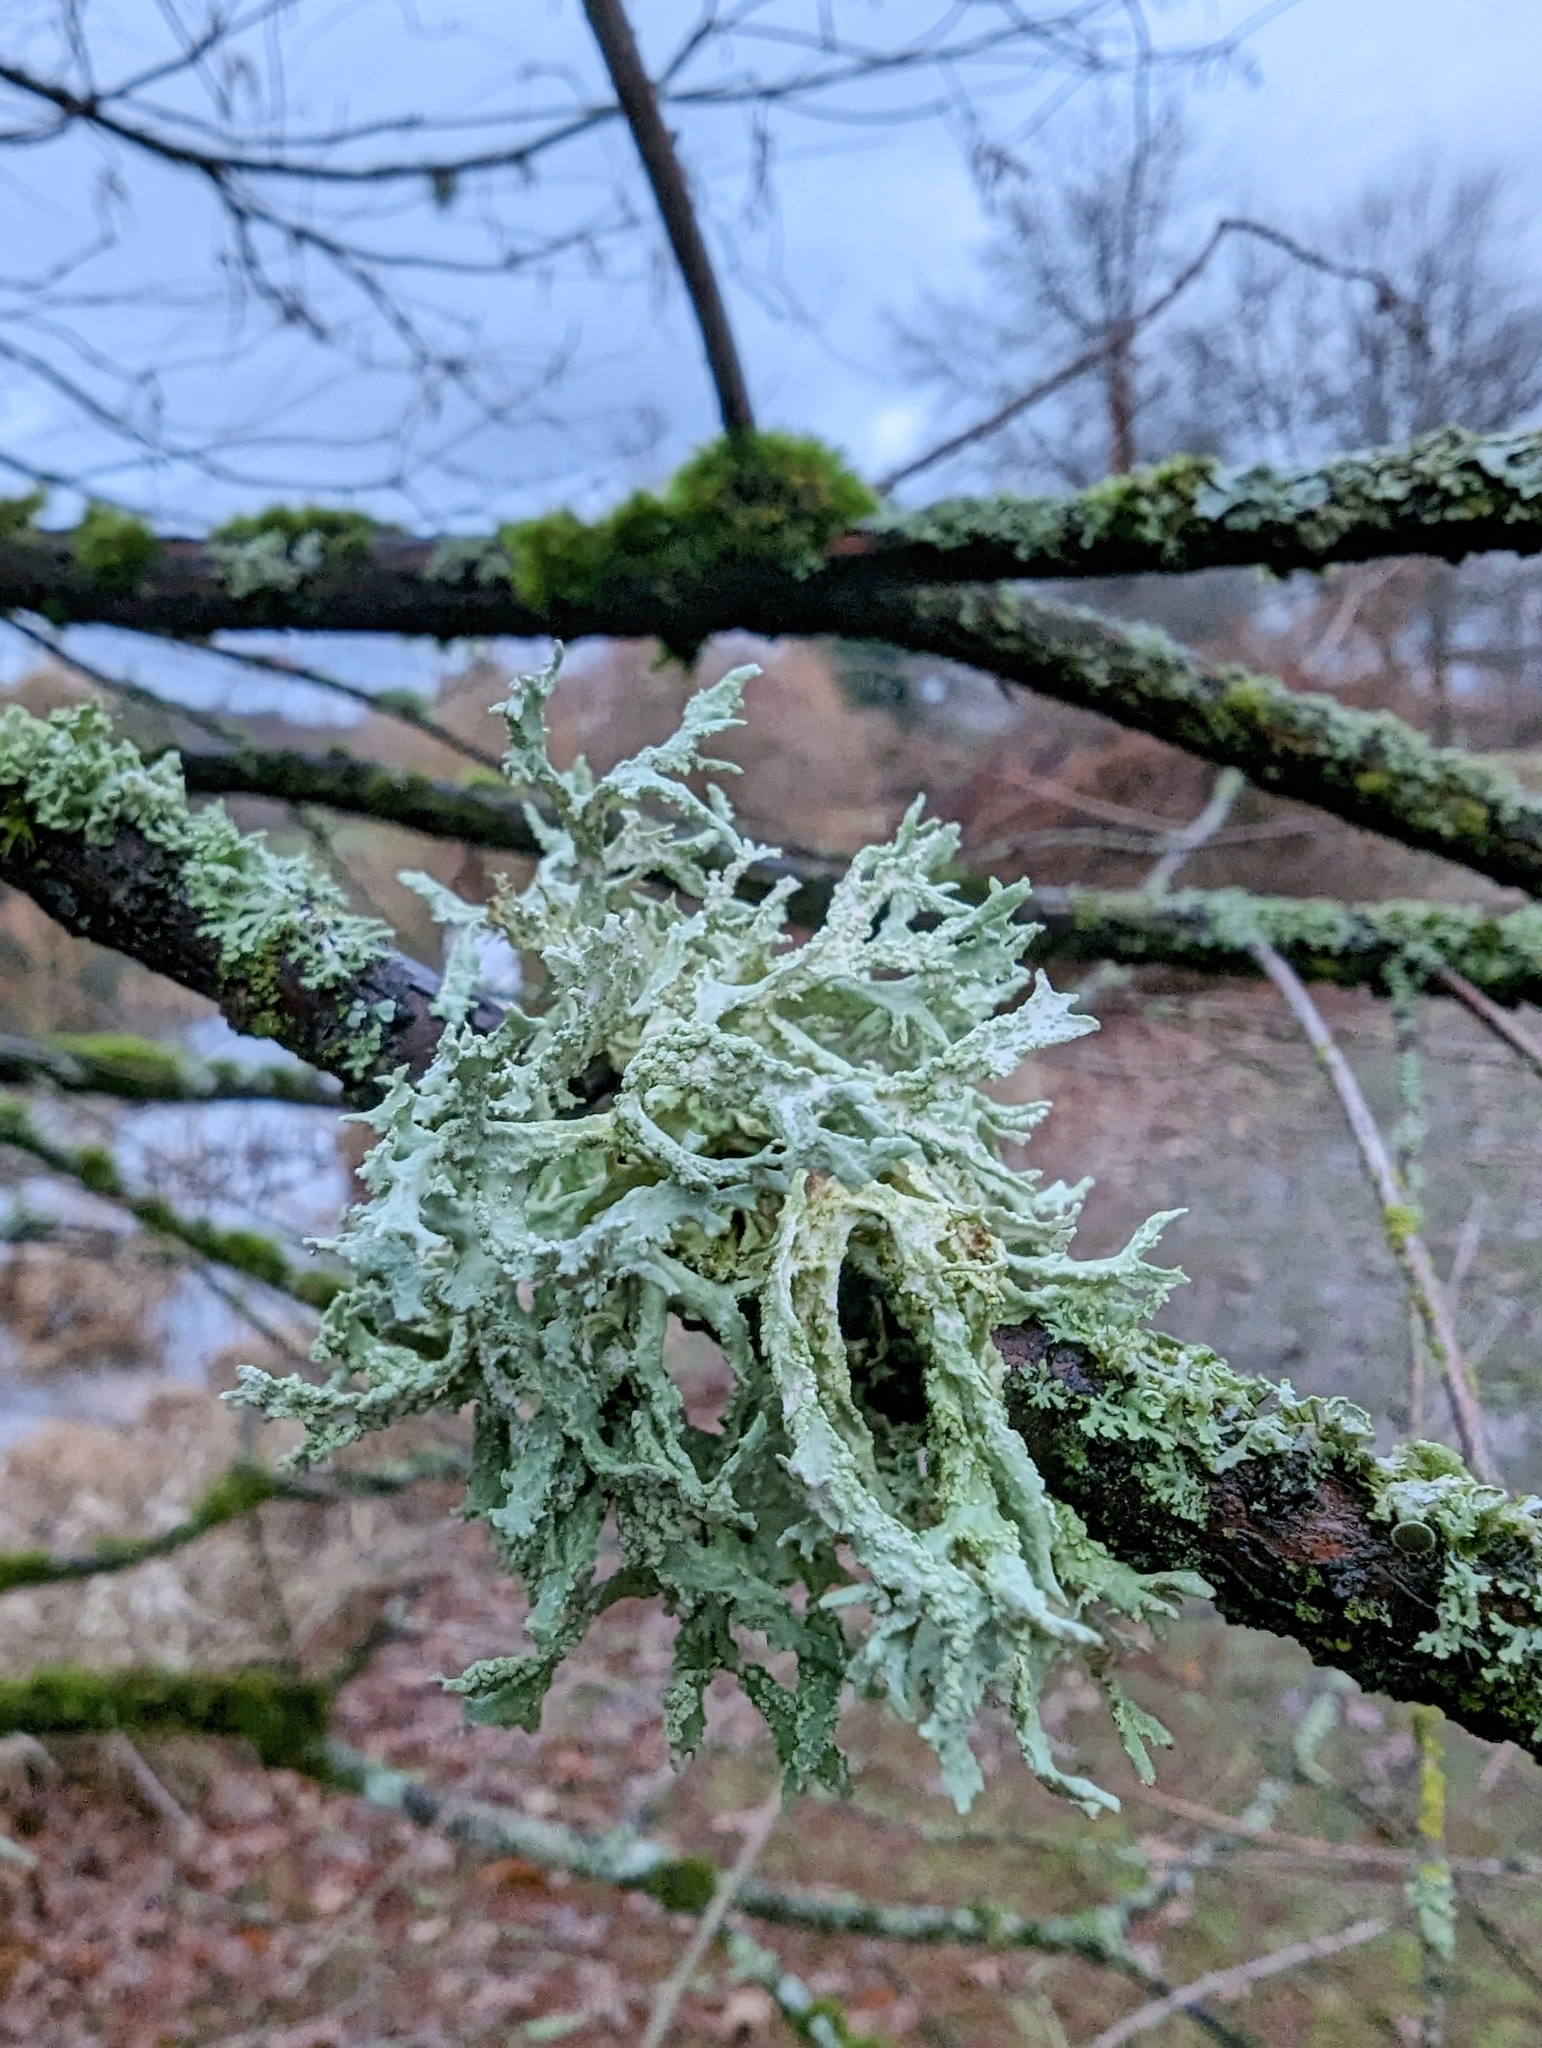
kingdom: Fungi
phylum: Ascomycota
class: Lecanoromycetes
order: Lecanorales
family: Parmeliaceae
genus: Evernia
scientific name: Evernia prunastri
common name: Oak moss
